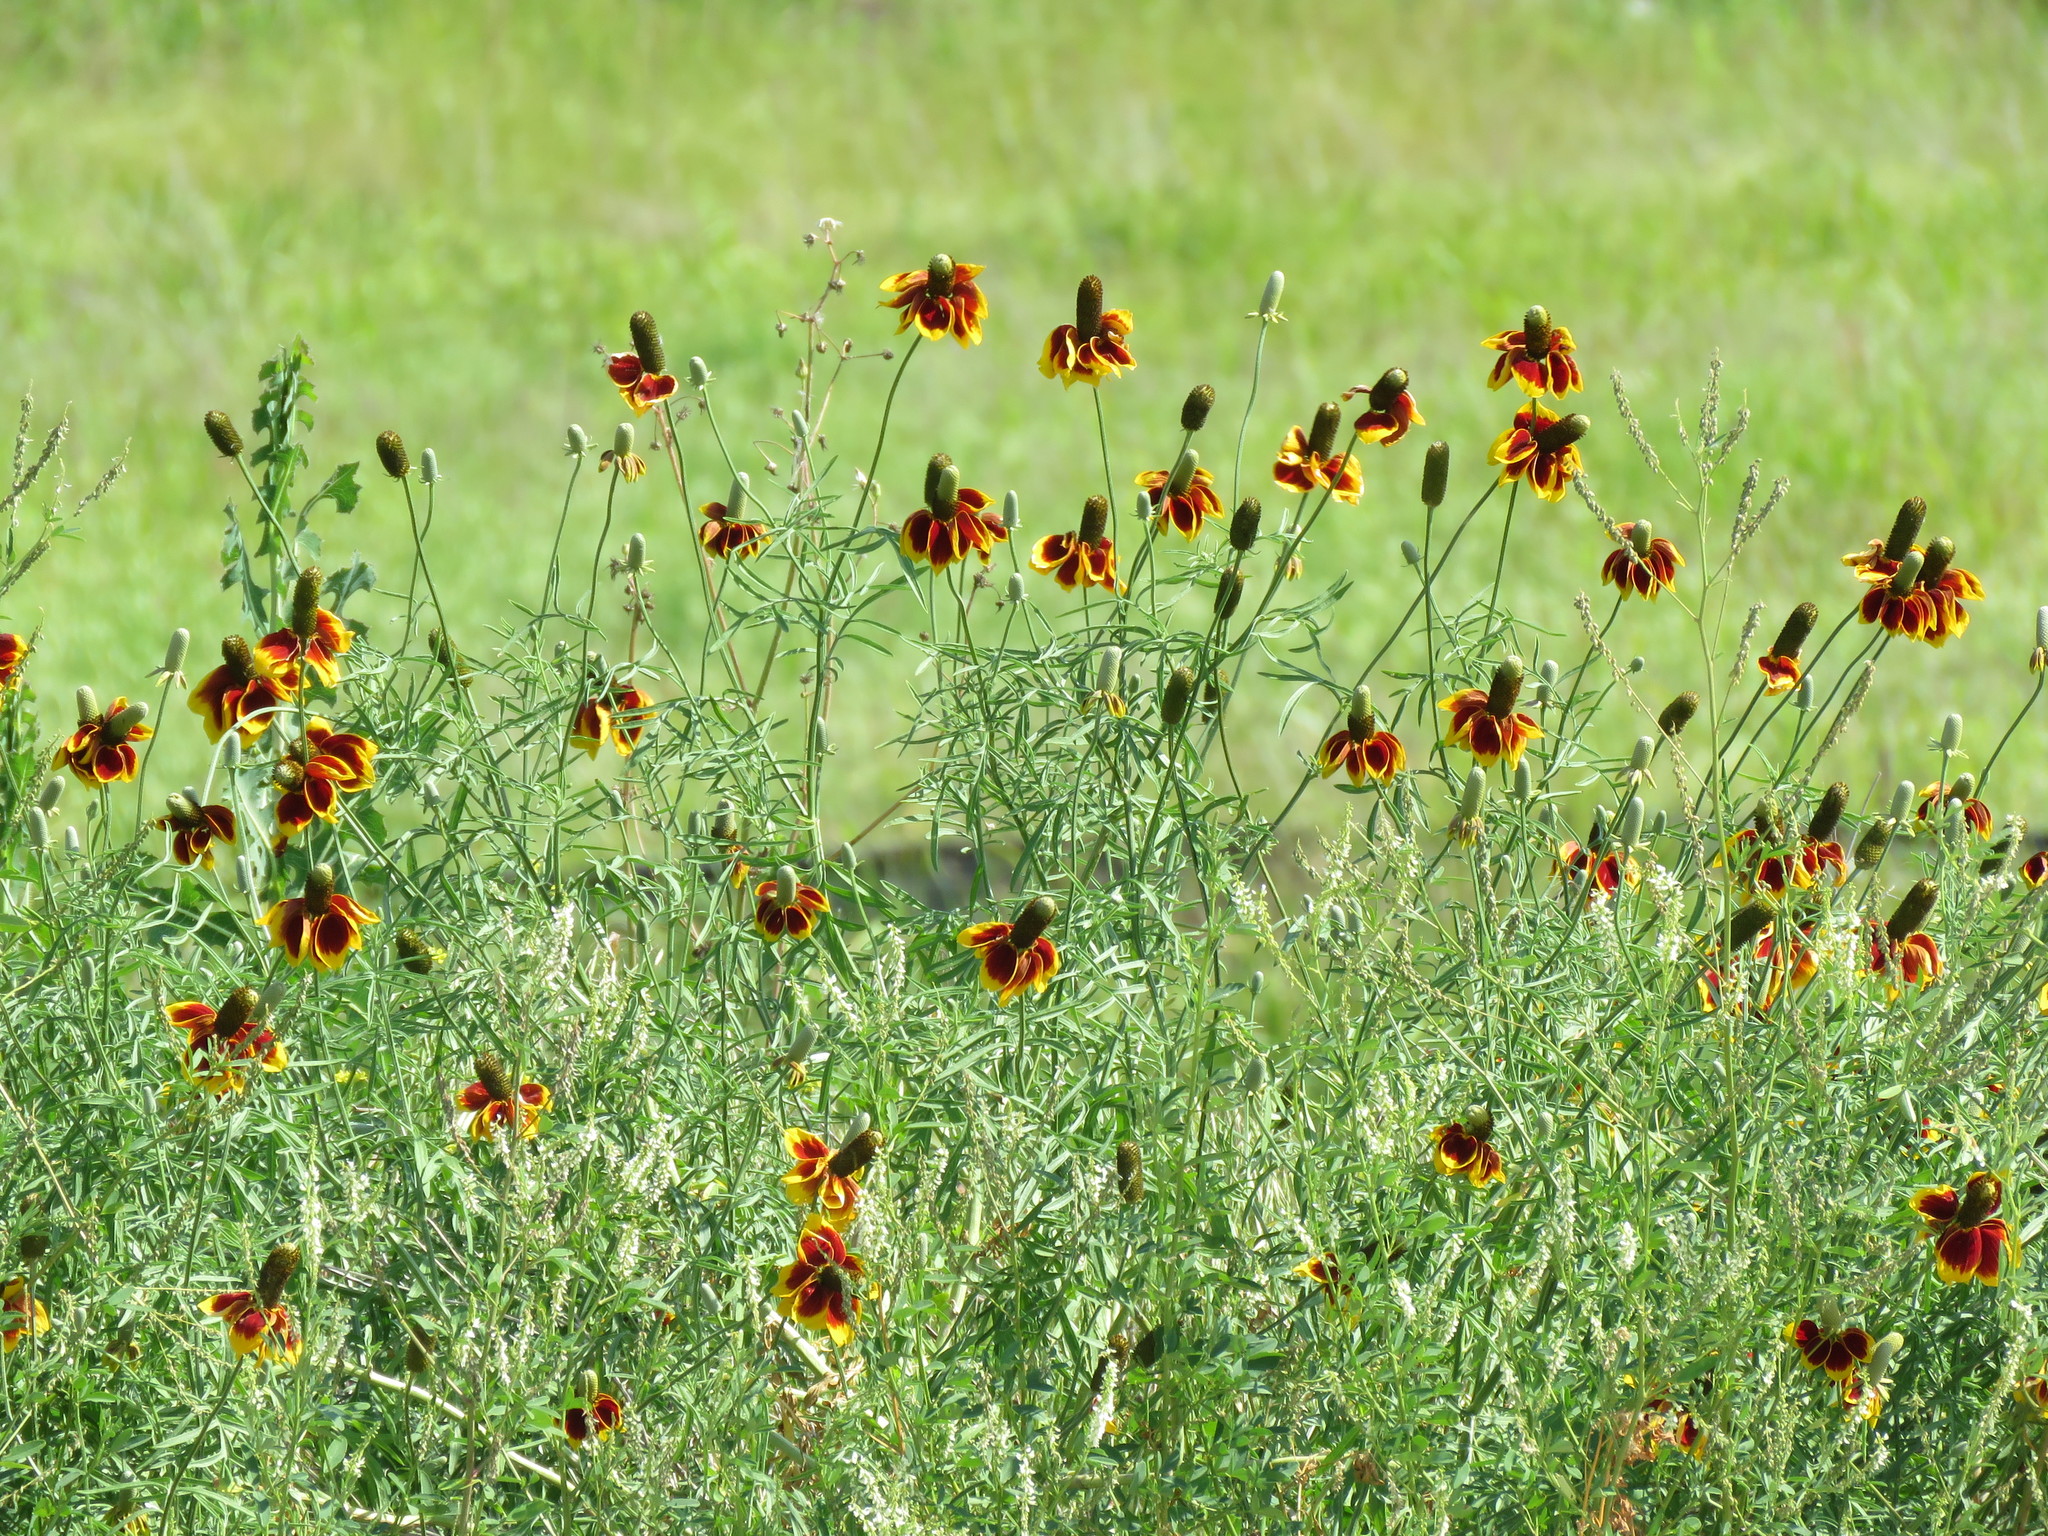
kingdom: Plantae
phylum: Tracheophyta
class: Magnoliopsida
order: Asterales
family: Asteraceae
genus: Ratibida
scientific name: Ratibida columnifera
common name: Prairie coneflower
